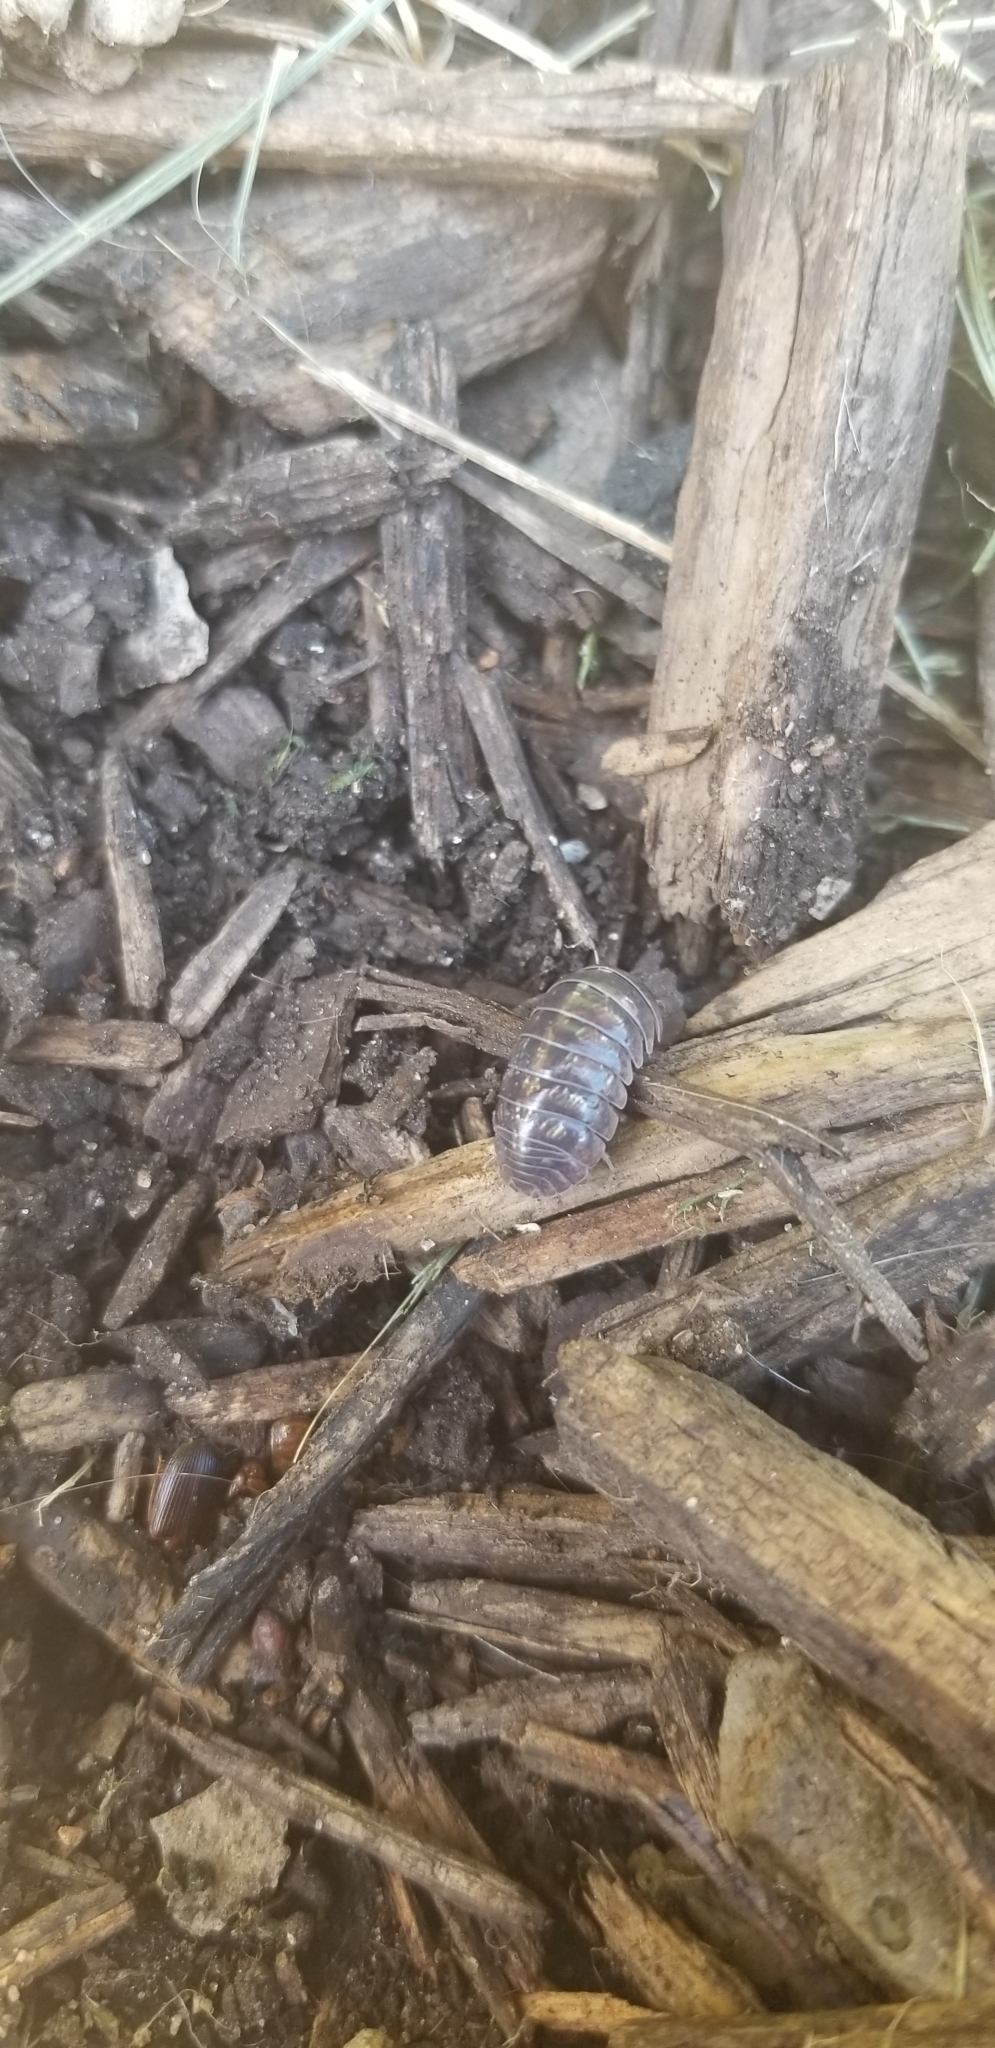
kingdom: Animalia
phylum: Arthropoda
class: Malacostraca
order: Isopoda
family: Armadillidiidae
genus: Armadillidium
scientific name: Armadillidium vulgare
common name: Common pill woodlouse
